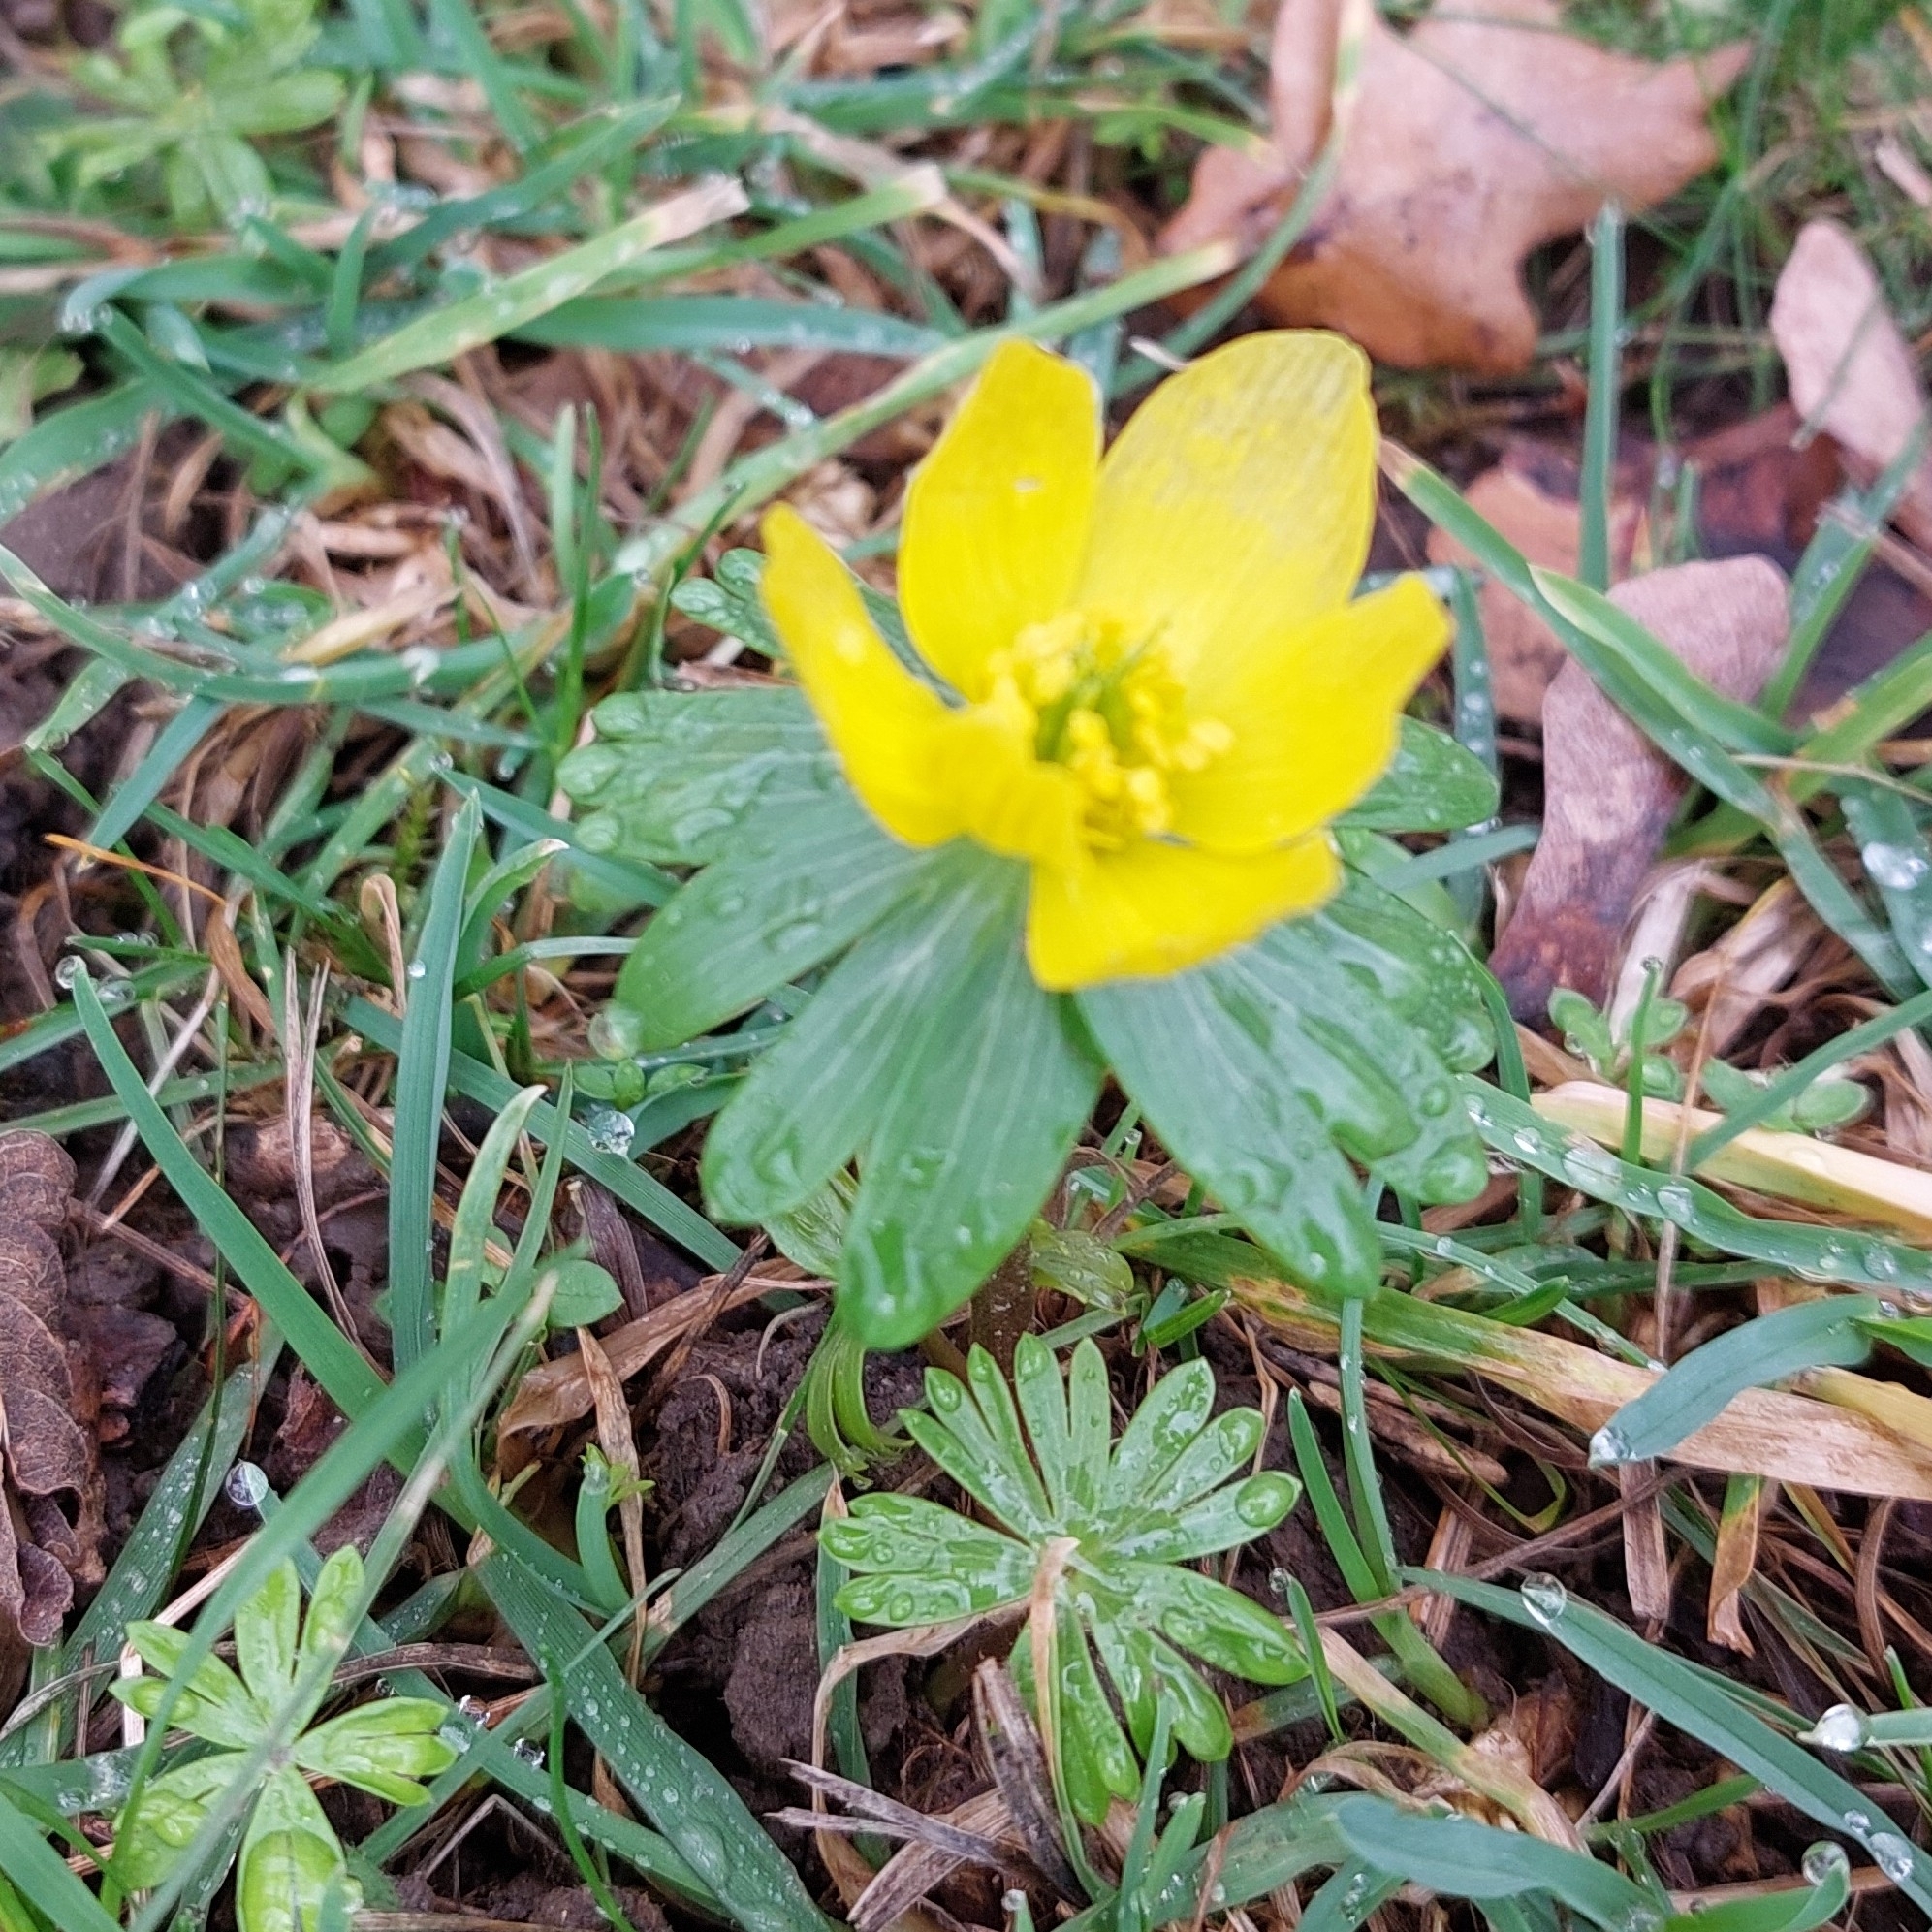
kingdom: Plantae
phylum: Tracheophyta
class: Magnoliopsida
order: Ranunculales
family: Ranunculaceae
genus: Eranthis
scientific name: Eranthis hyemalis
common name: Winter aconite
